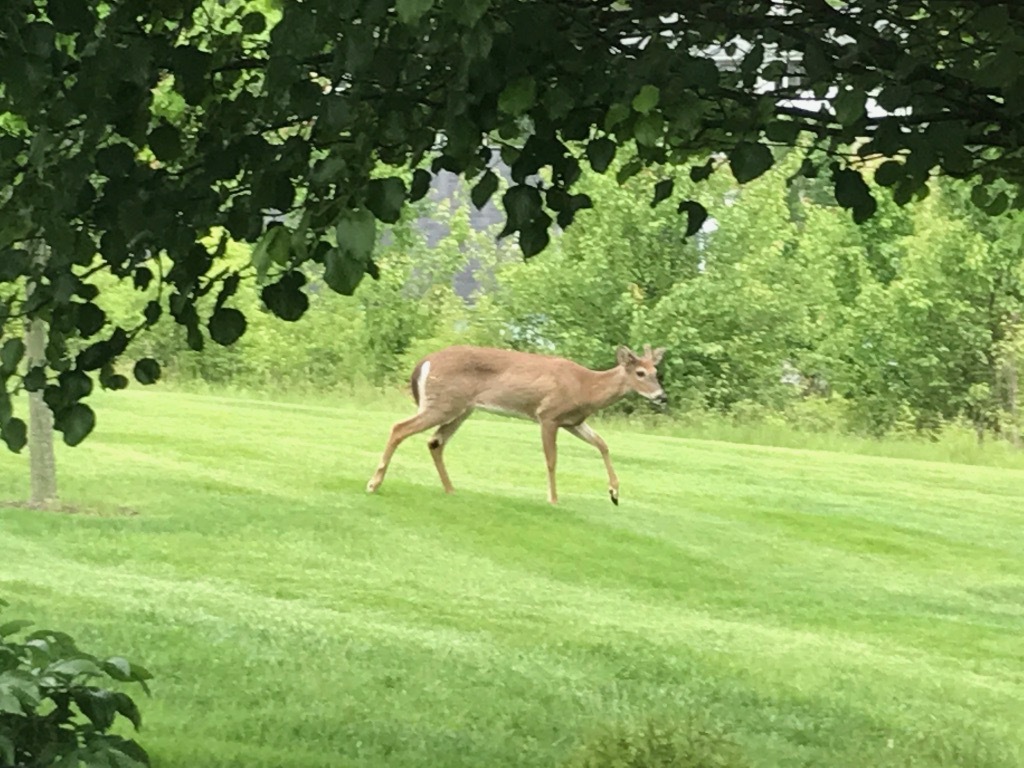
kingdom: Animalia
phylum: Chordata
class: Mammalia
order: Artiodactyla
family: Cervidae
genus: Odocoileus
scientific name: Odocoileus virginianus
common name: White-tailed deer
